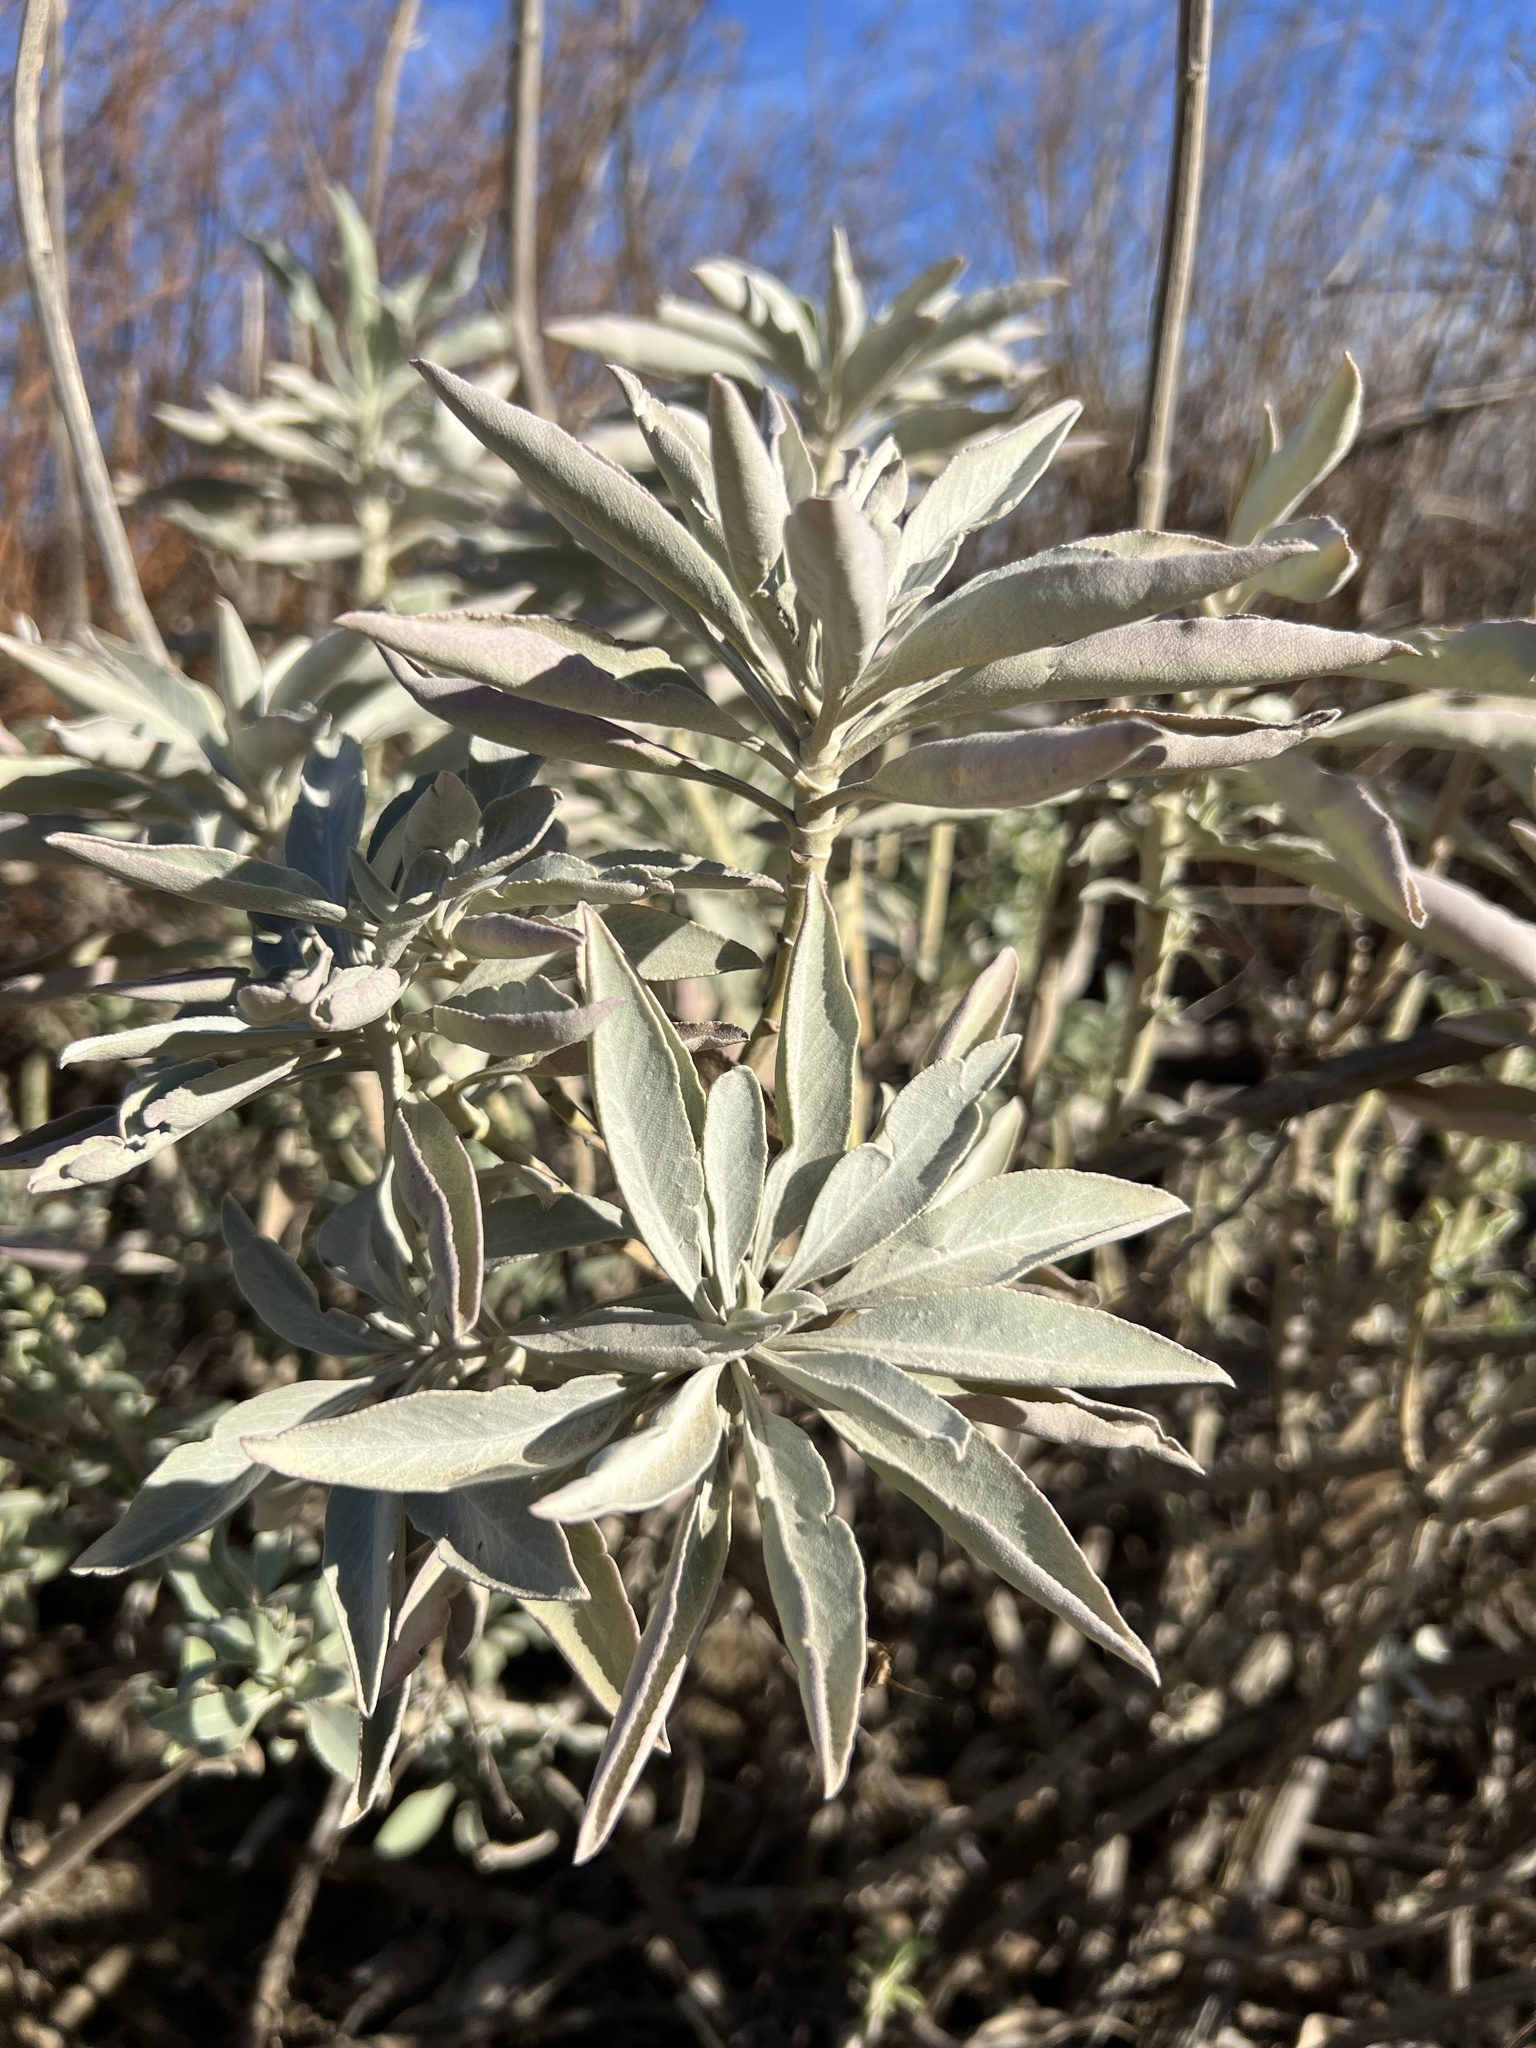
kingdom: Plantae
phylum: Tracheophyta
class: Magnoliopsida
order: Lamiales
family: Lamiaceae
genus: Salvia
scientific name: Salvia apiana
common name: White sage
